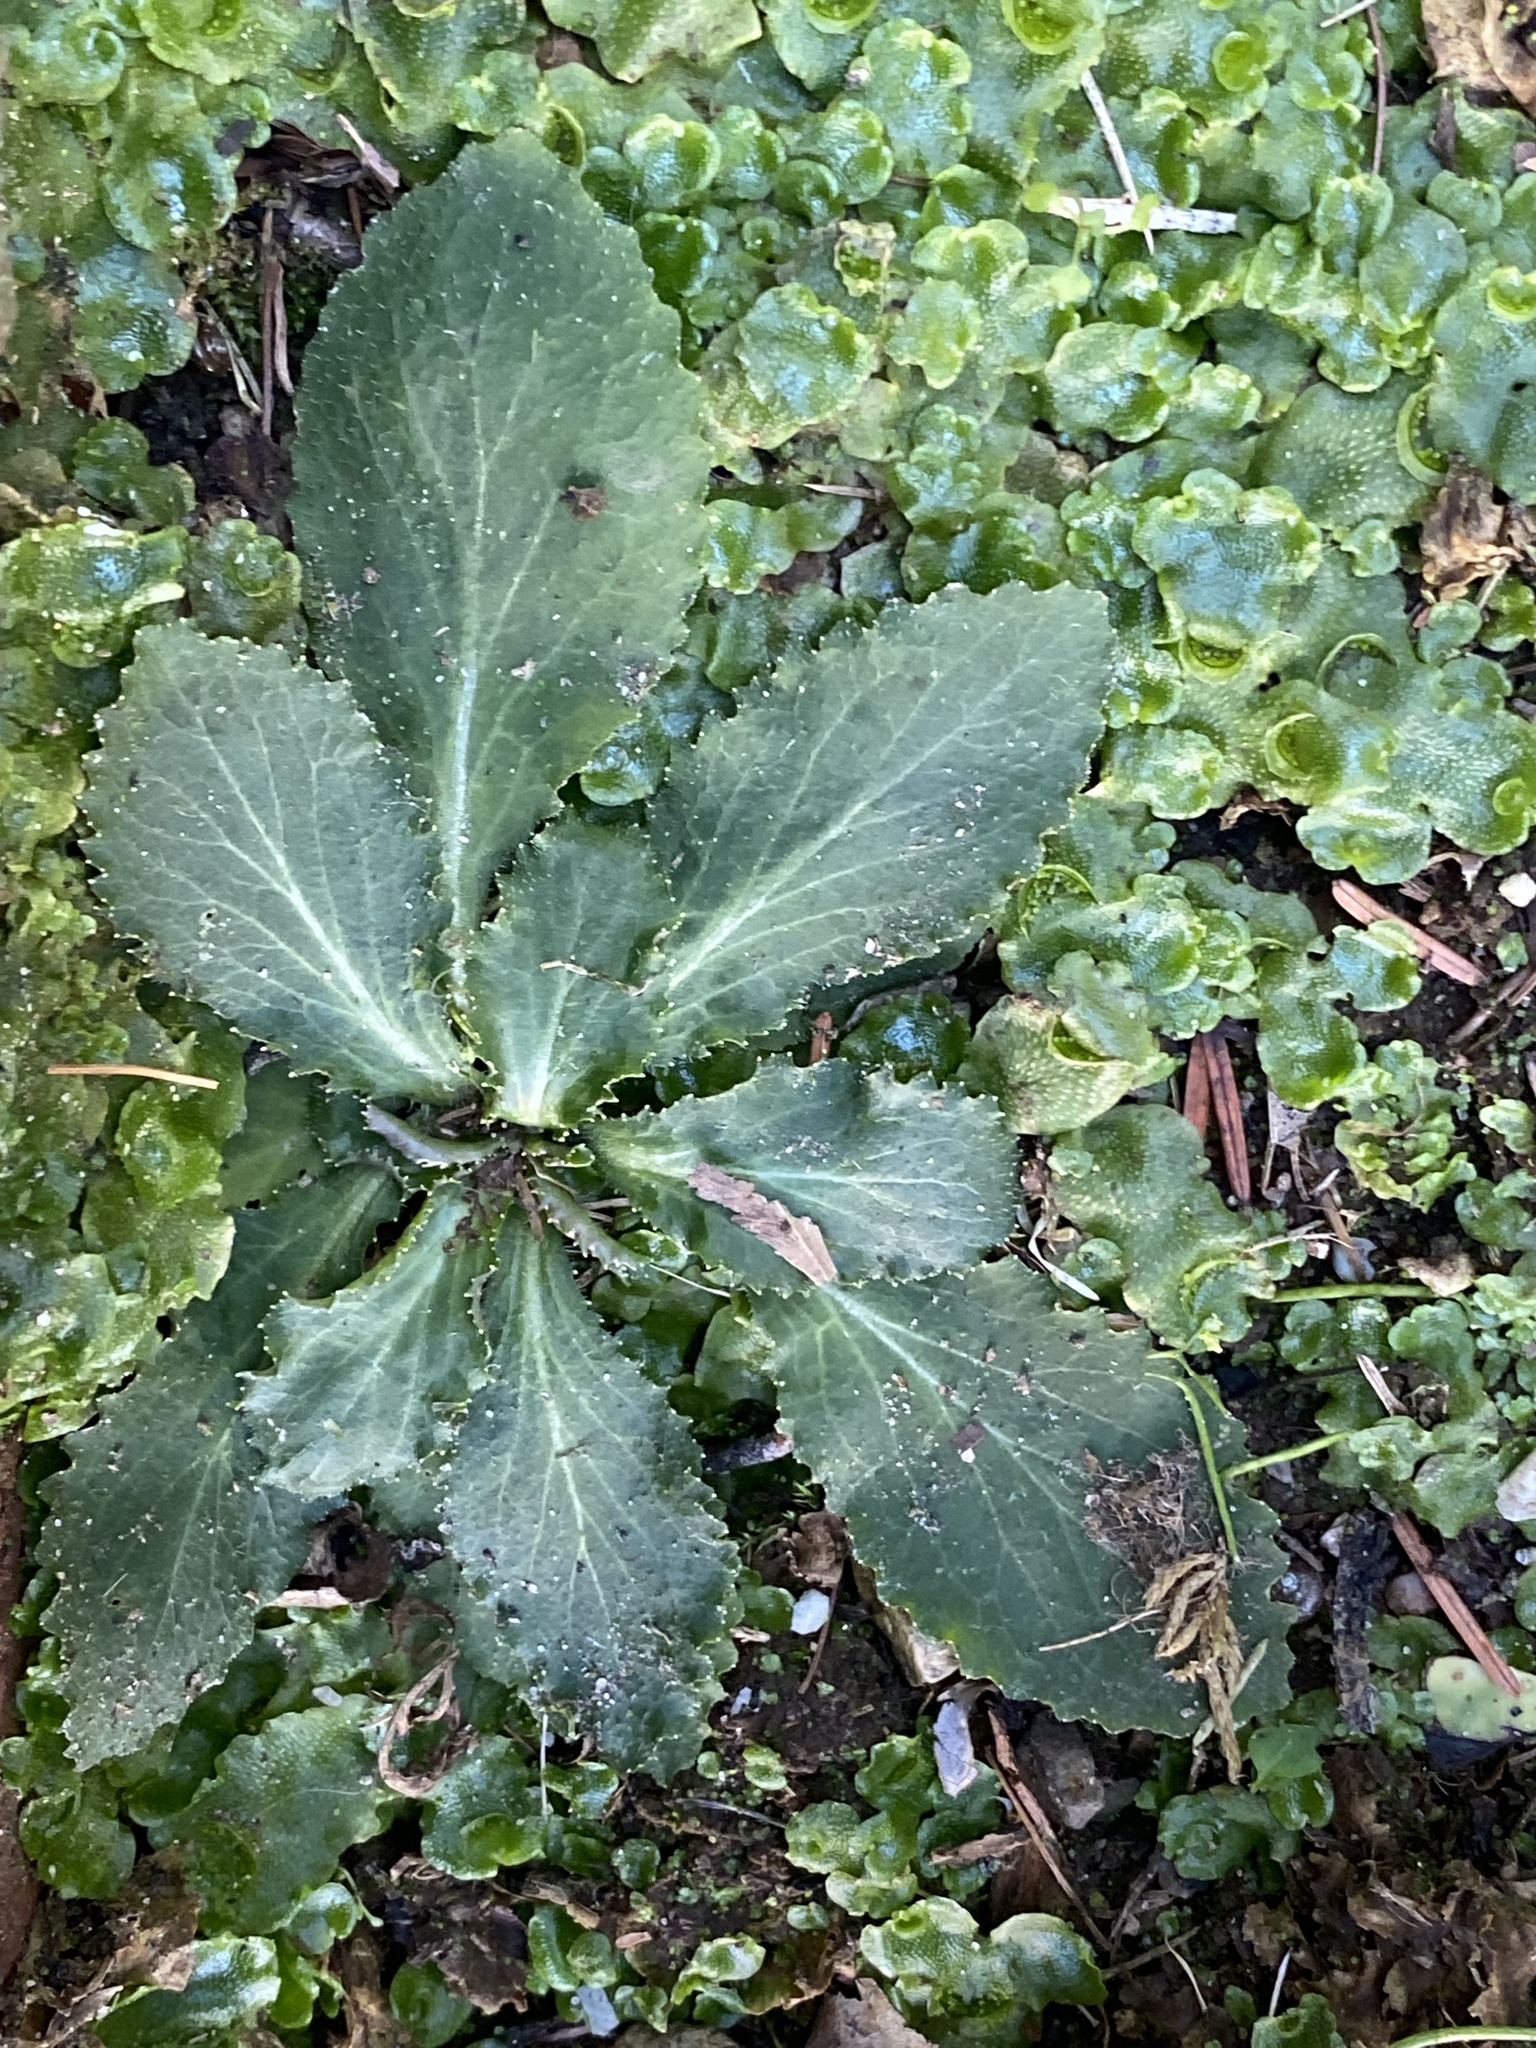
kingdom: Plantae
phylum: Tracheophyta
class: Magnoliopsida
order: Asterales
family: Campanulaceae
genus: Lobelia
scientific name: Lobelia inflata
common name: Indian tobacco
